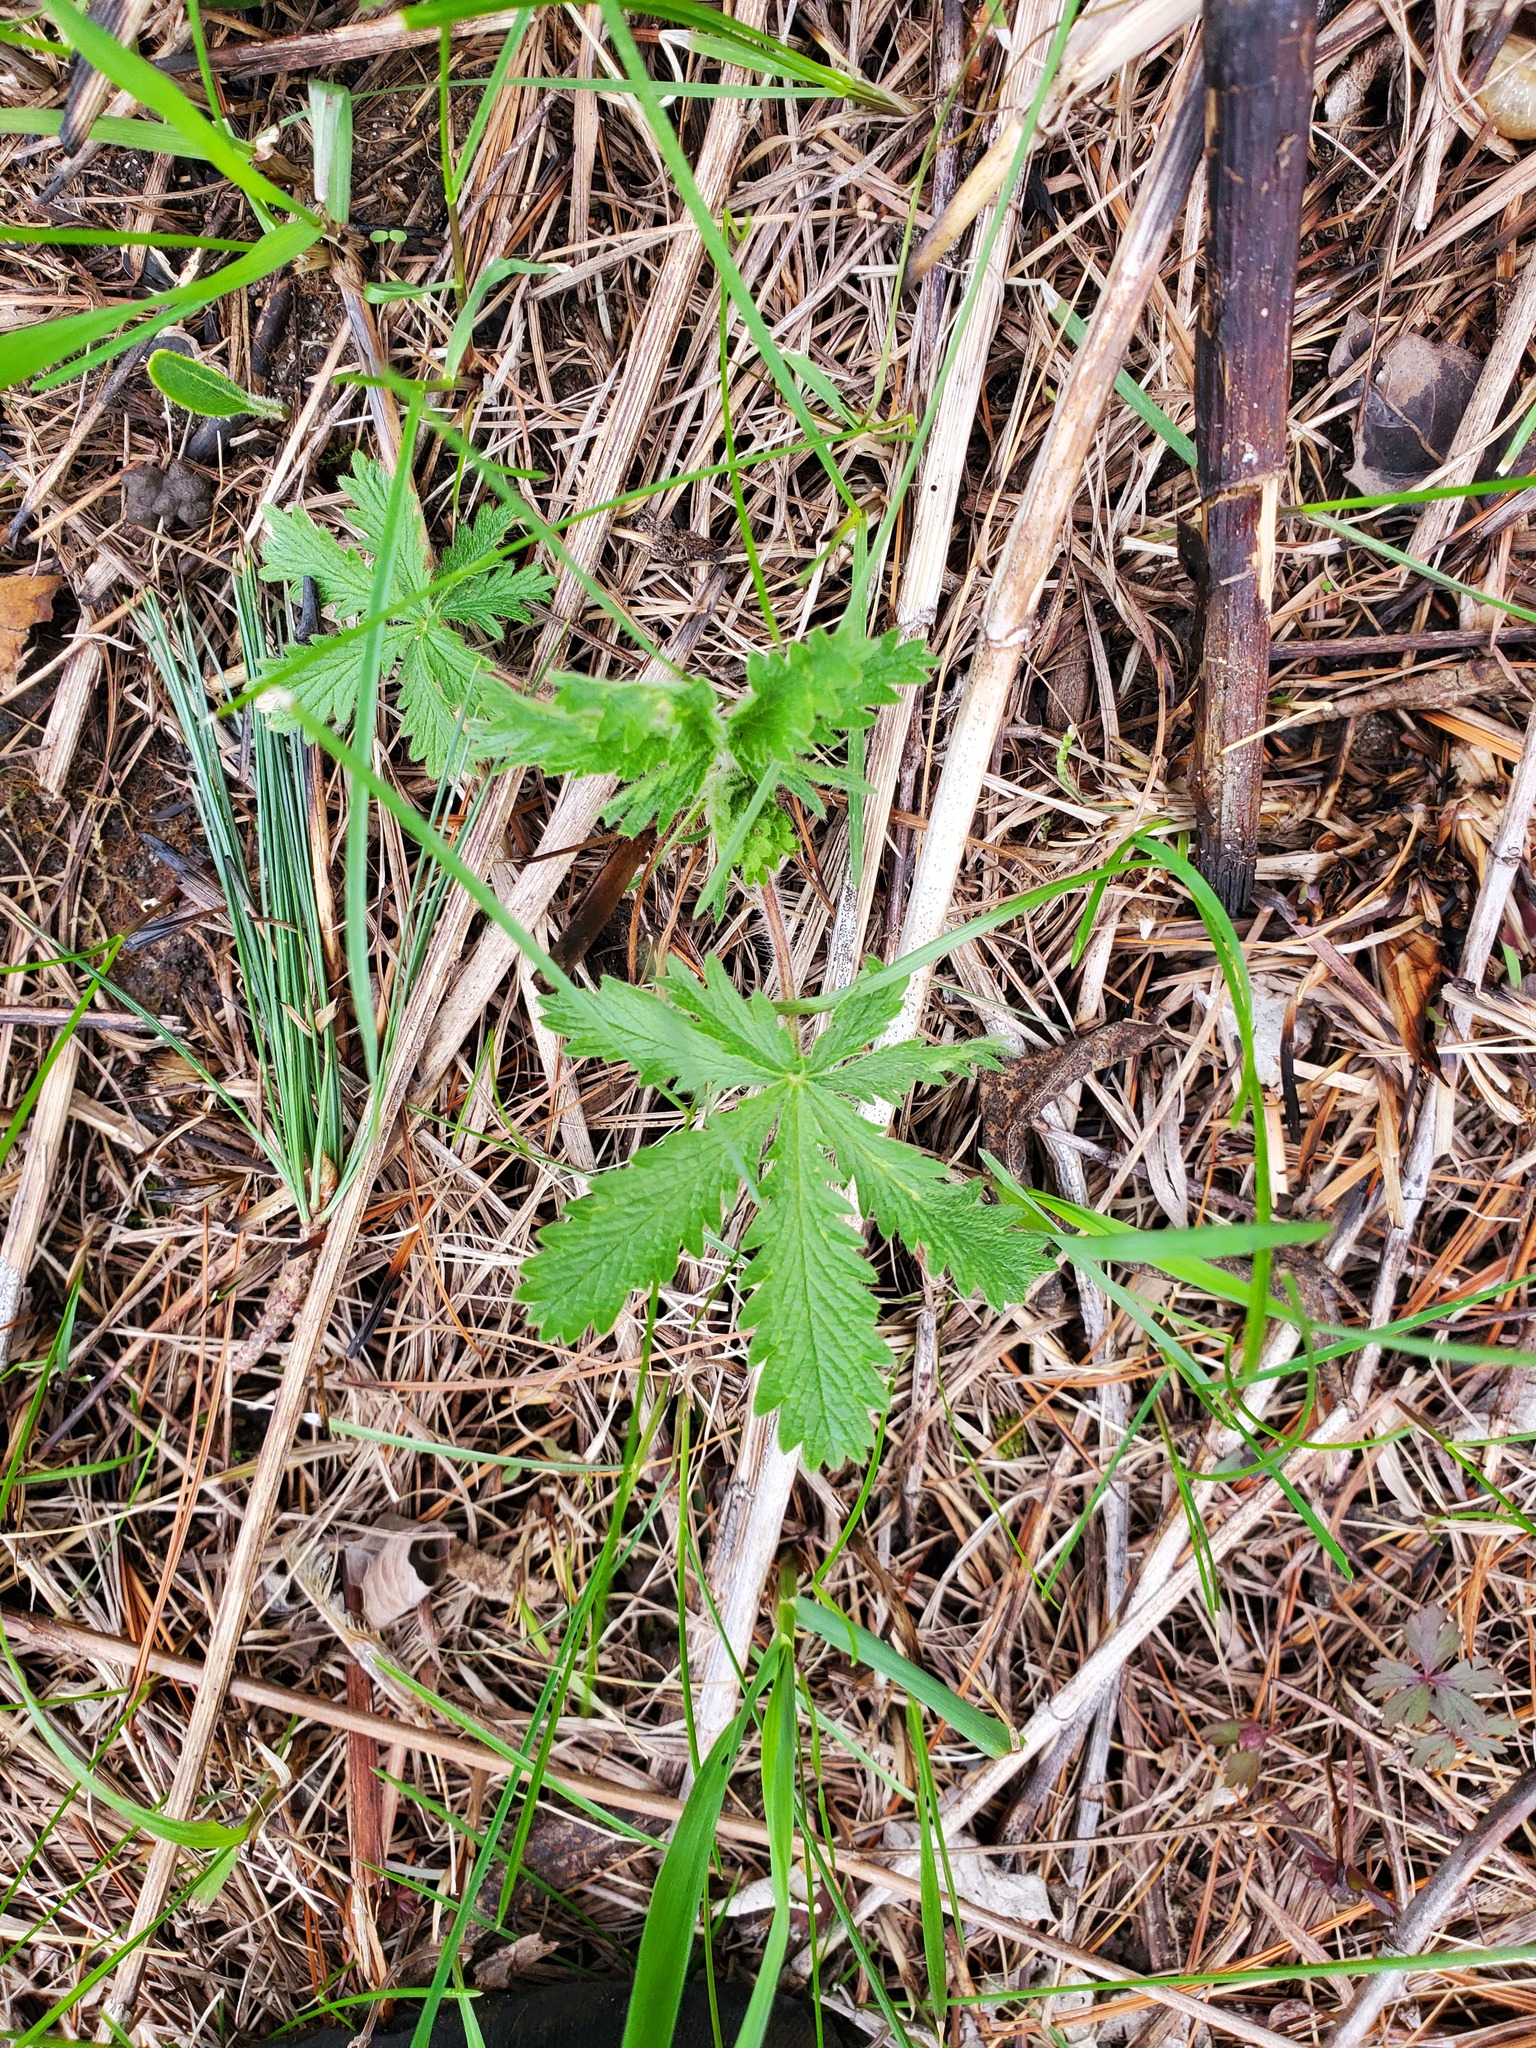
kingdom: Plantae
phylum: Tracheophyta
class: Magnoliopsida
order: Rosales
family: Rosaceae
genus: Potentilla
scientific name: Potentilla recta
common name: Sulphur cinquefoil
